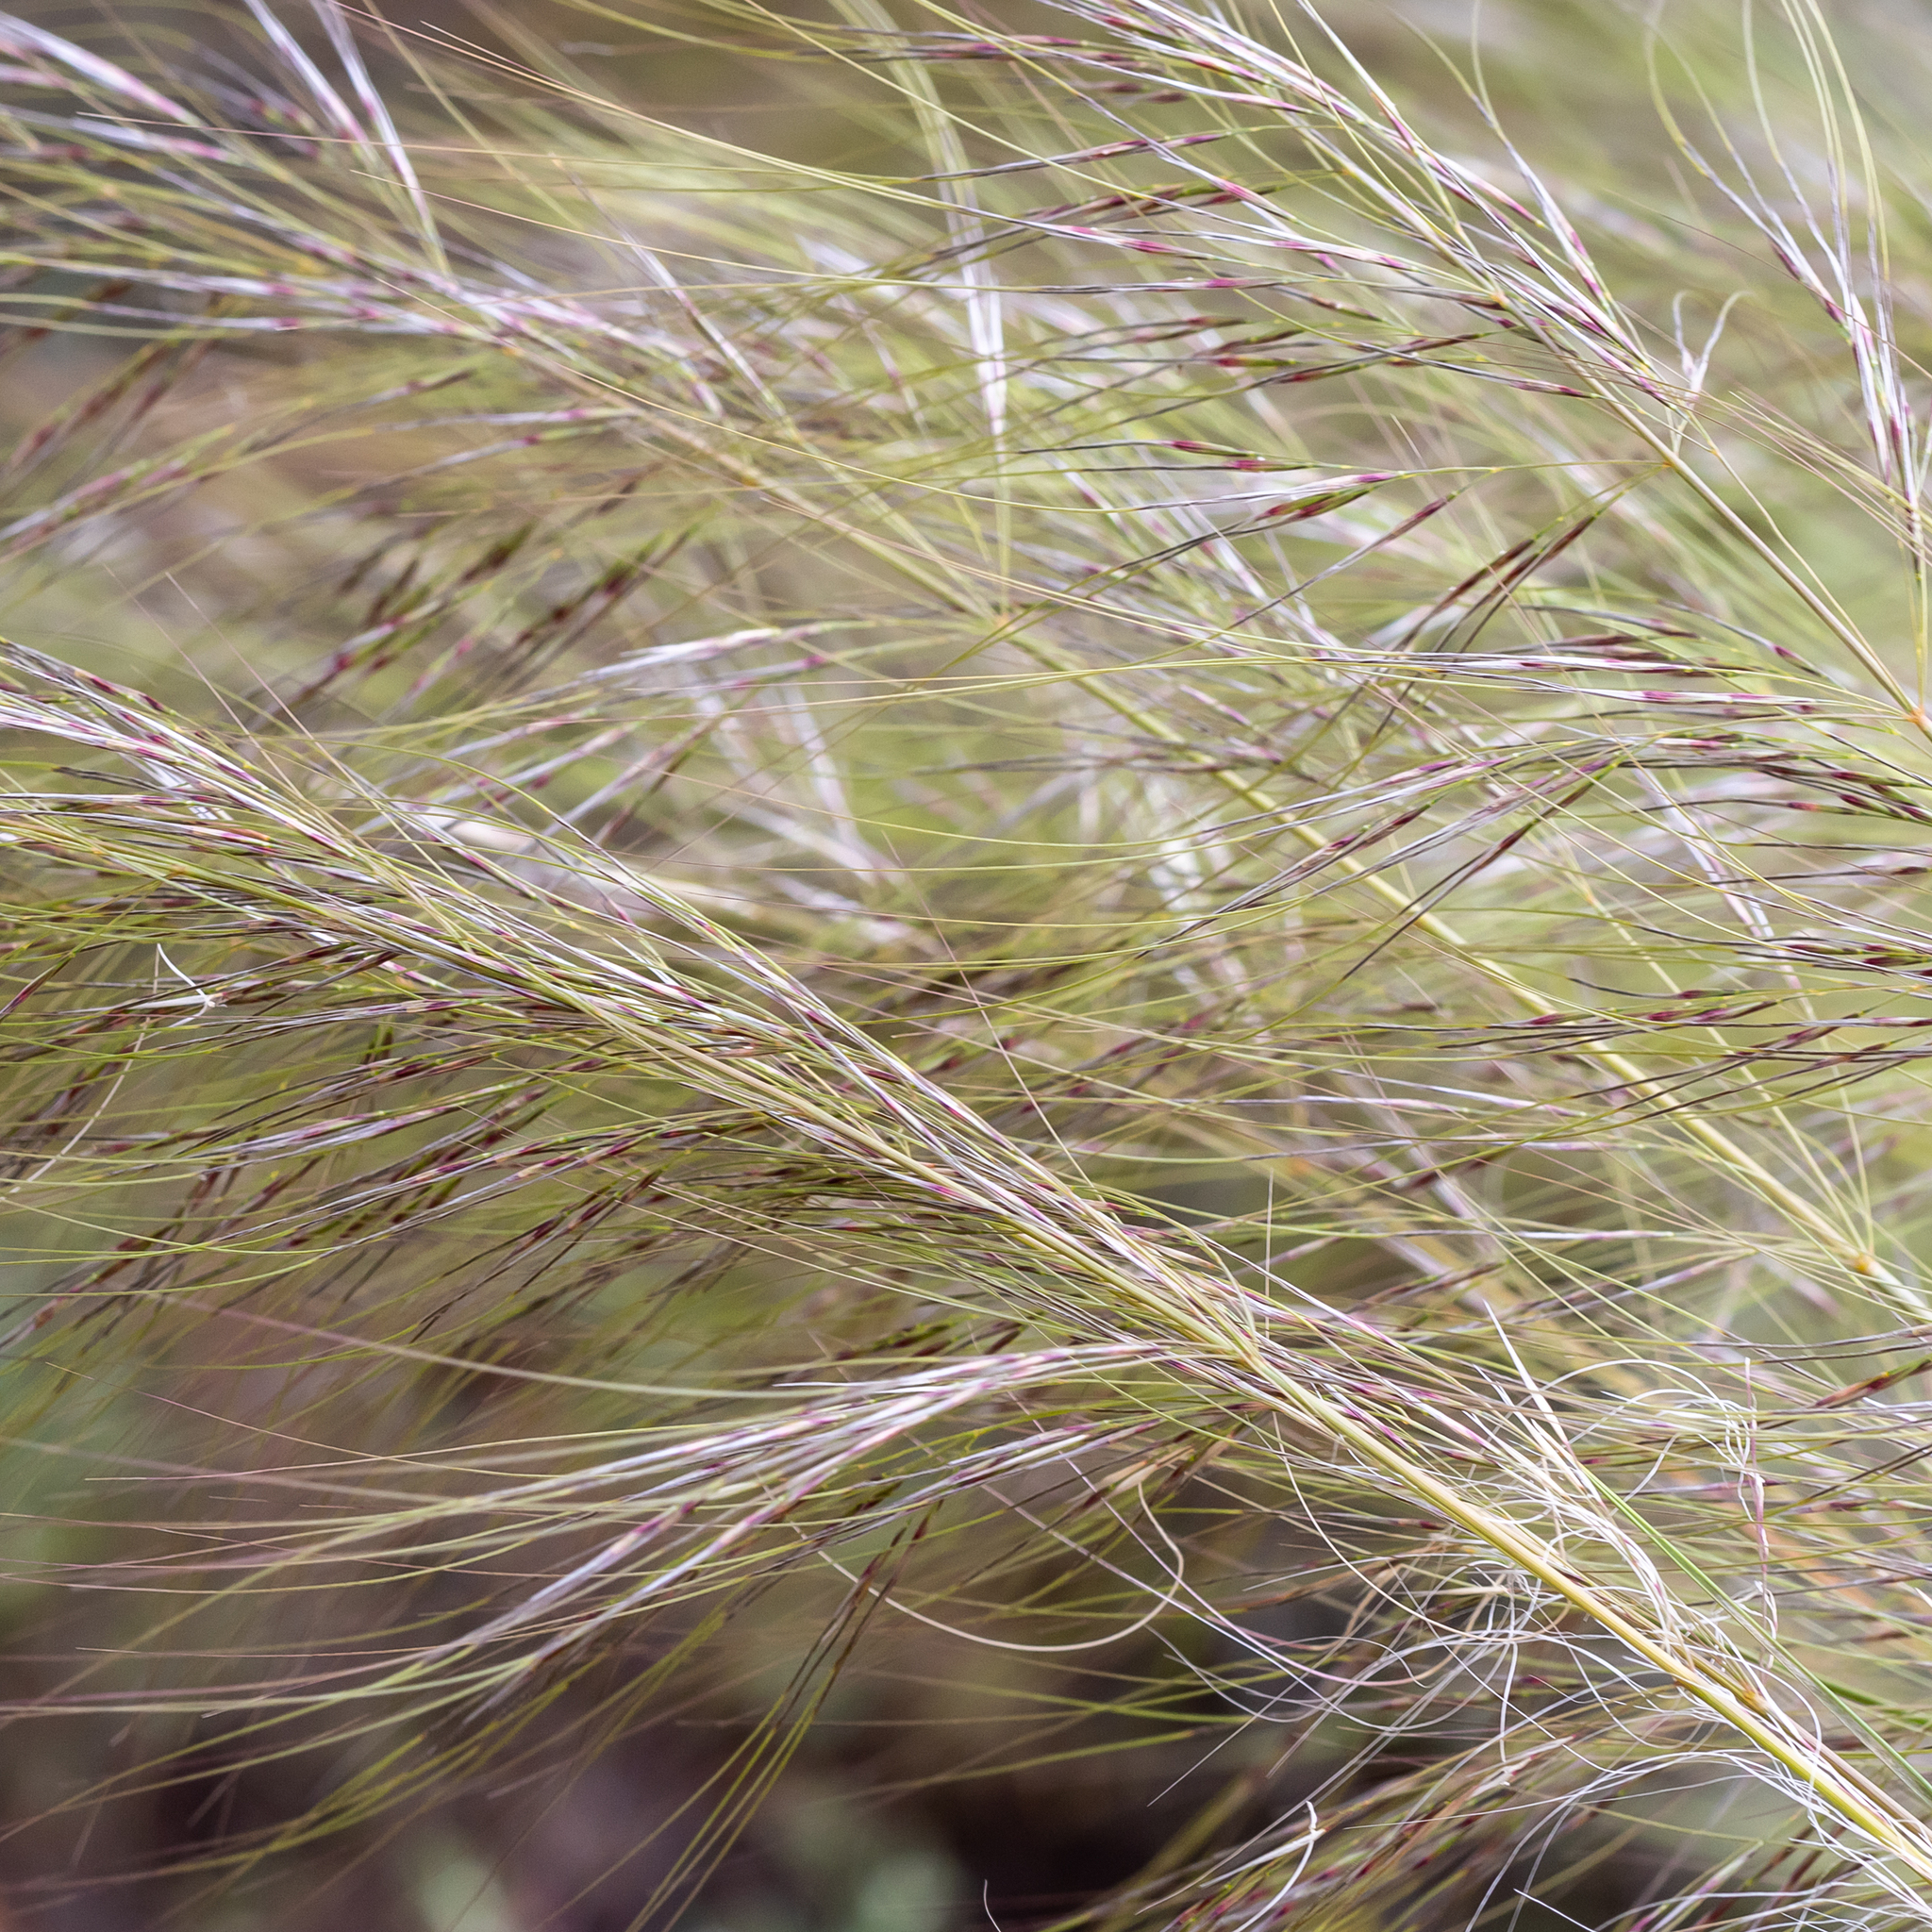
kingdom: Plantae
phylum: Tracheophyta
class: Liliopsida
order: Poales
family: Poaceae
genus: Austrostipa
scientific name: Austrostipa nodosa
